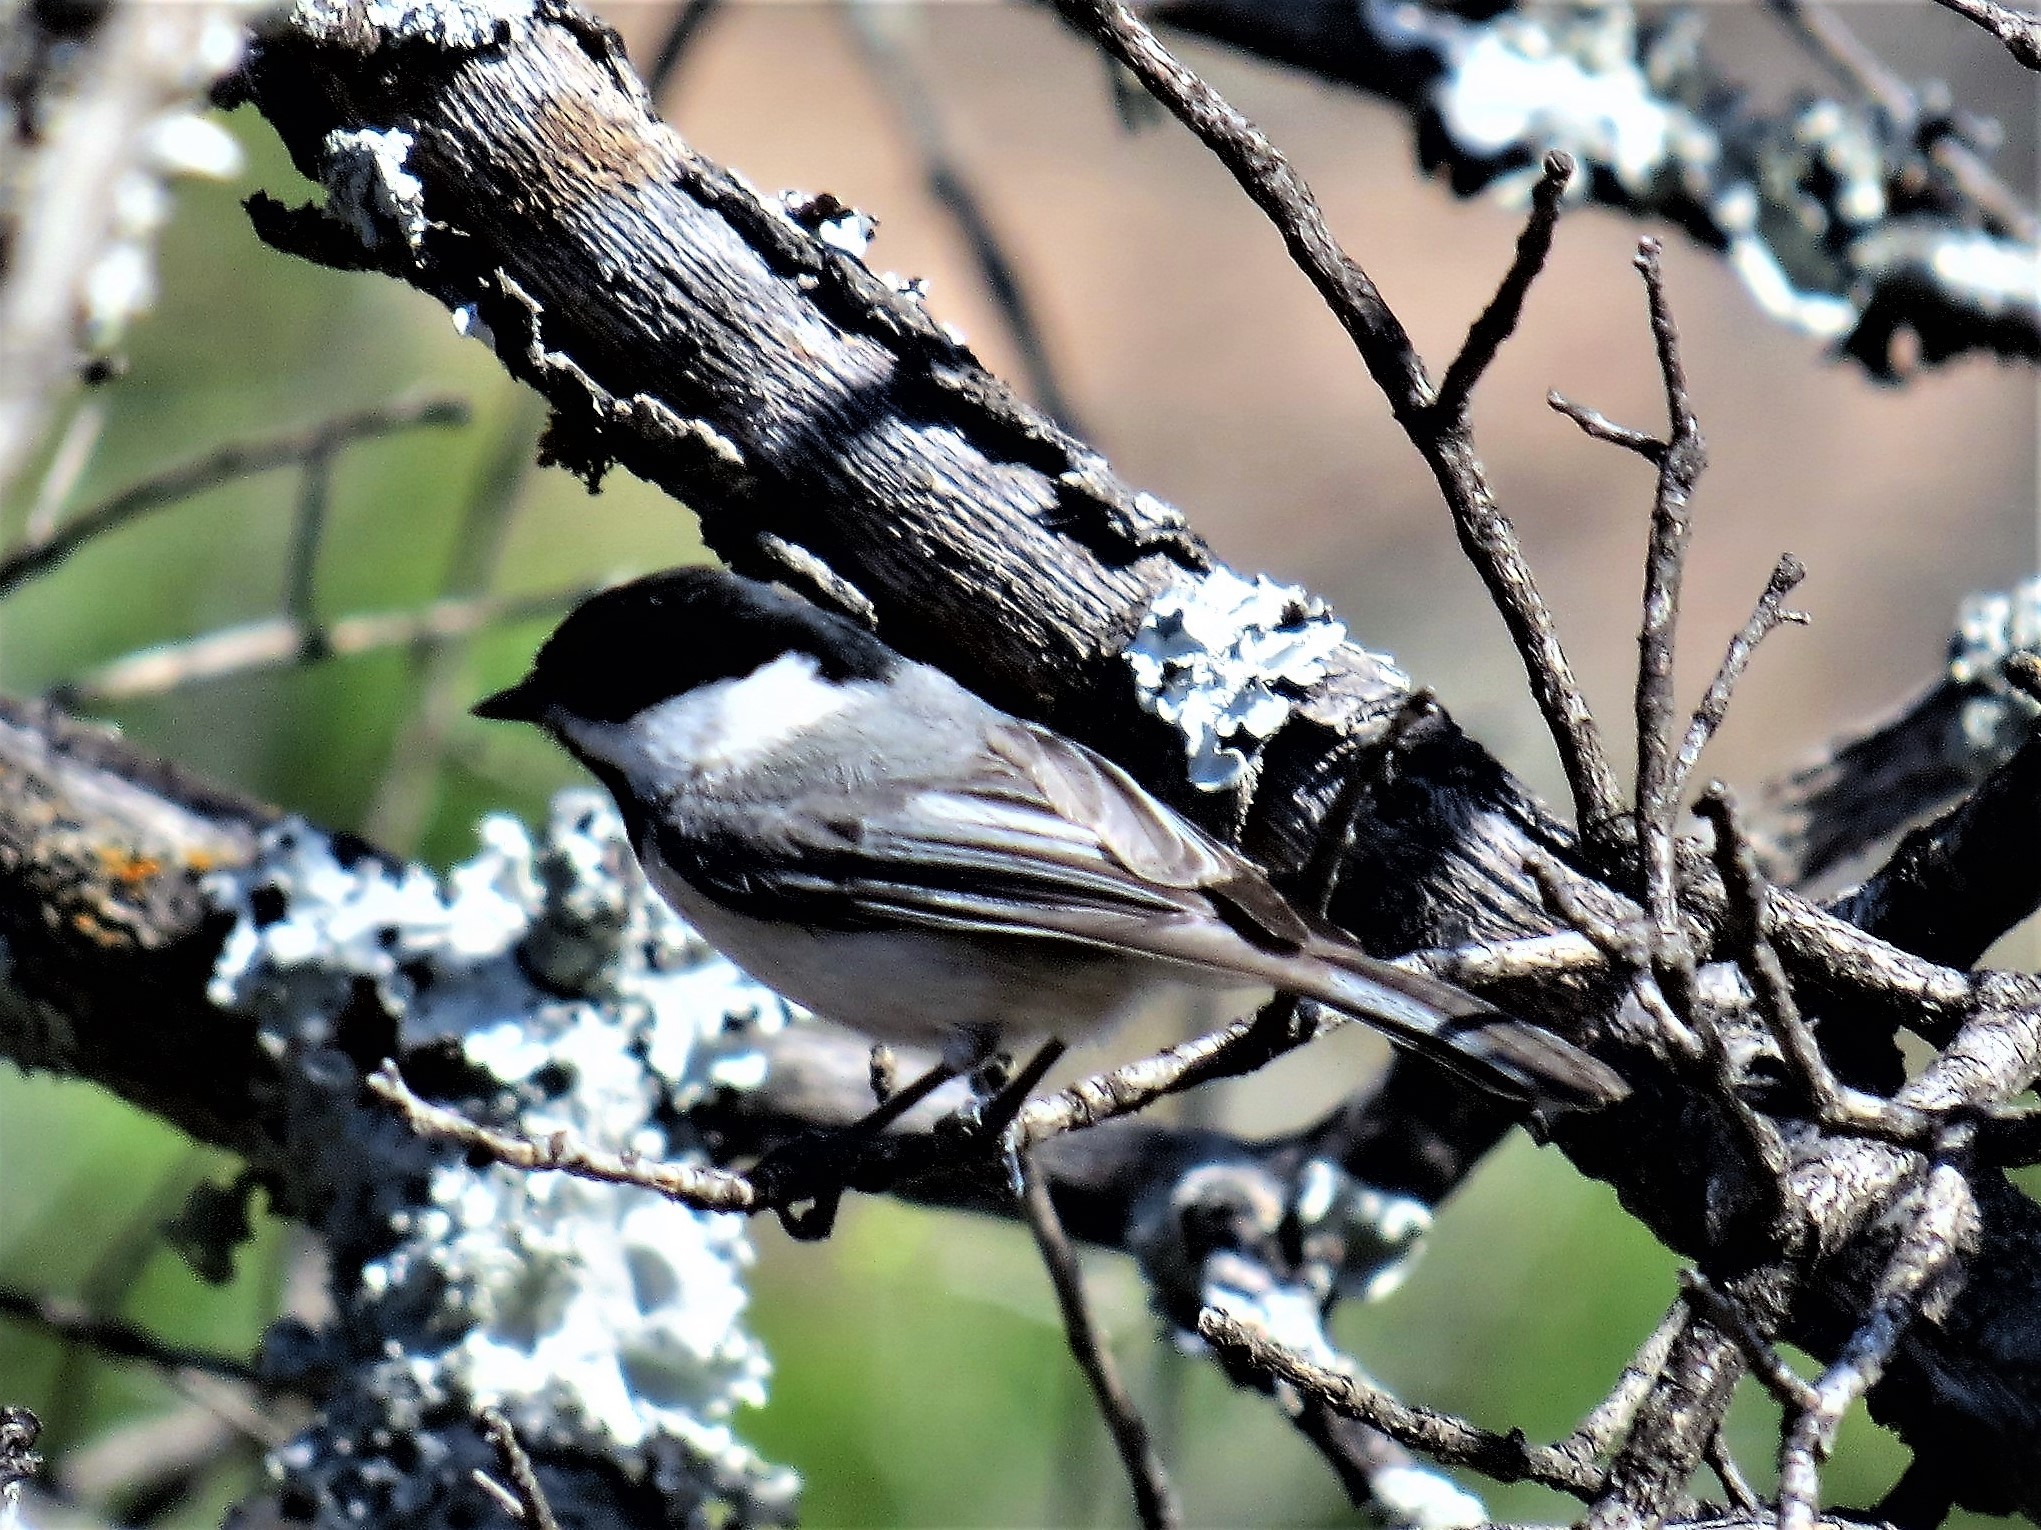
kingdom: Animalia
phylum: Chordata
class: Aves
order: Passeriformes
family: Paridae
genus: Poecile
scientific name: Poecile carolinensis
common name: Carolina chickadee
